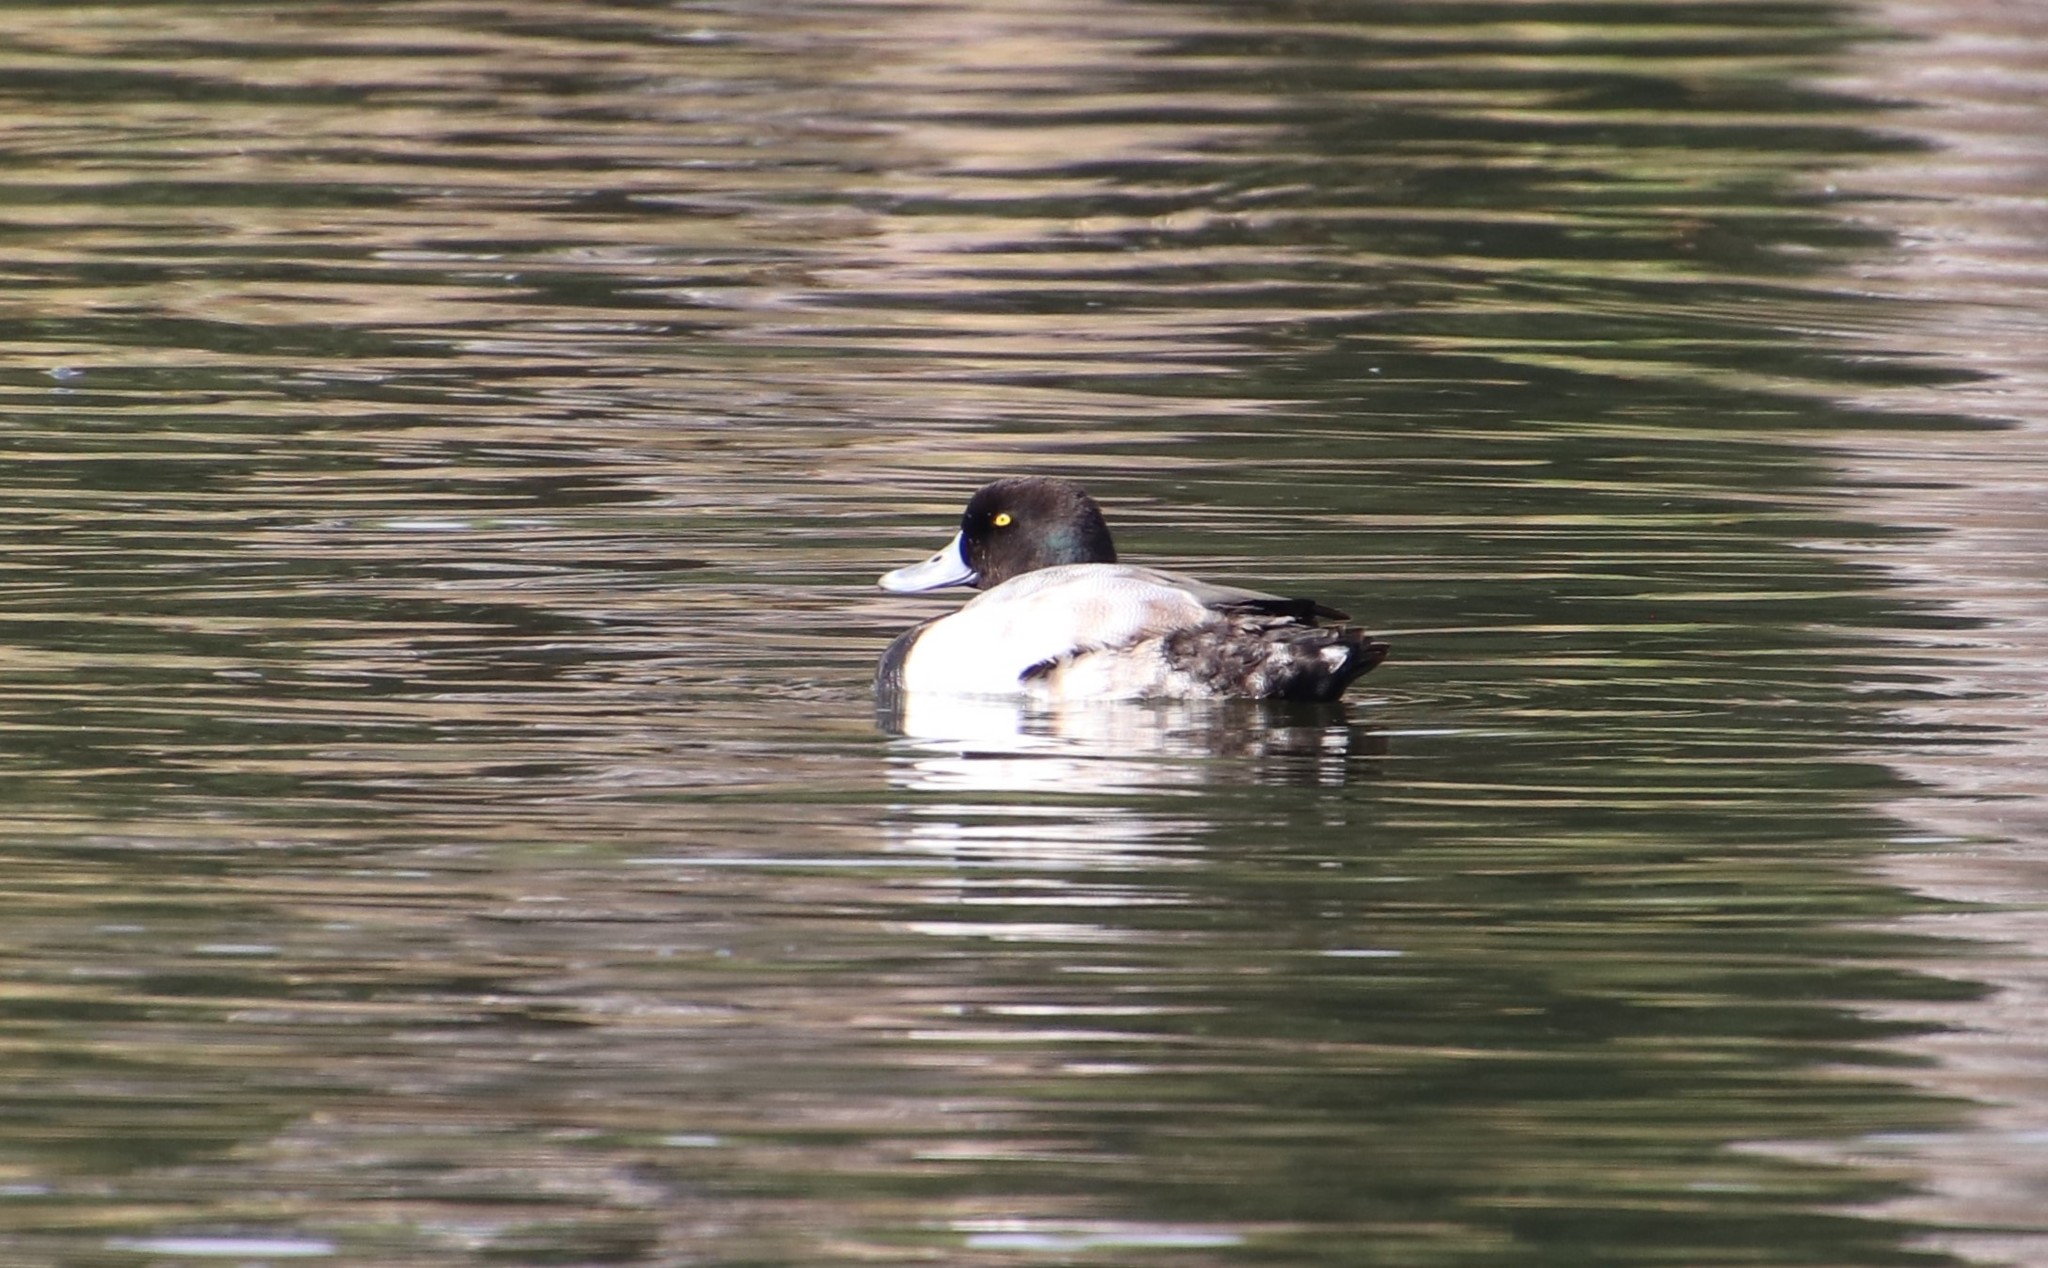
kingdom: Animalia
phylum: Chordata
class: Aves
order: Anseriformes
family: Anatidae
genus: Aythya
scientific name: Aythya marila
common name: Greater scaup
